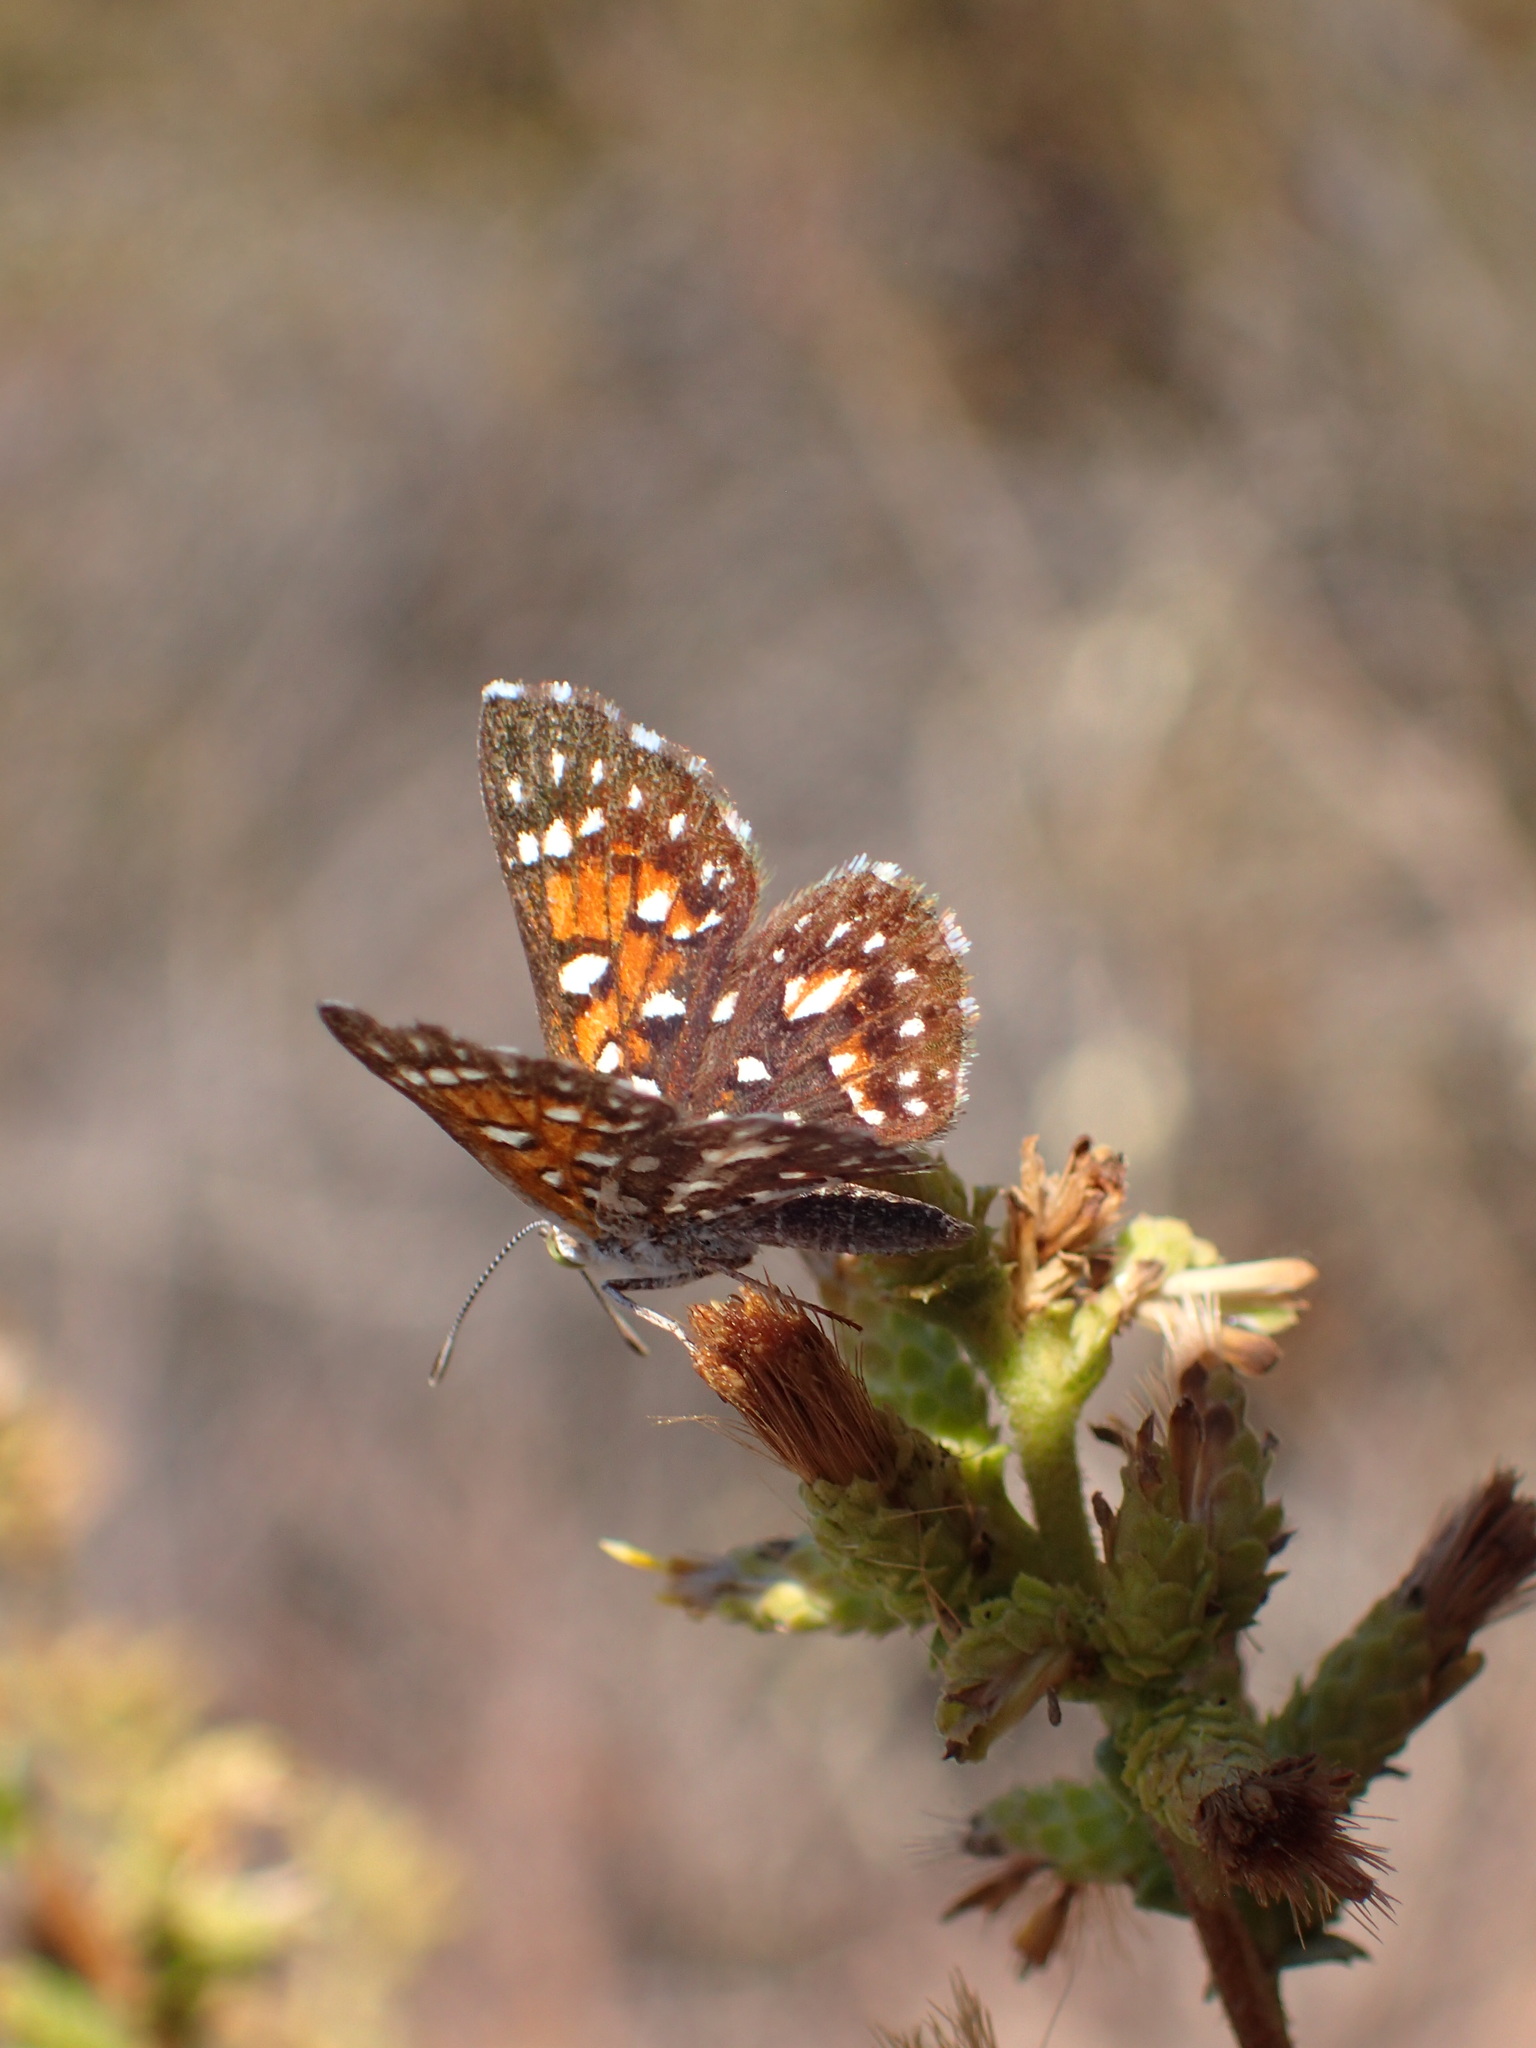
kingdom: Plantae
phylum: Tracheophyta
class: Magnoliopsida
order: Asterales
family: Asteraceae
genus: Hazardia
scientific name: Hazardia squarrosa
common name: Saw-tooth goldenbush
